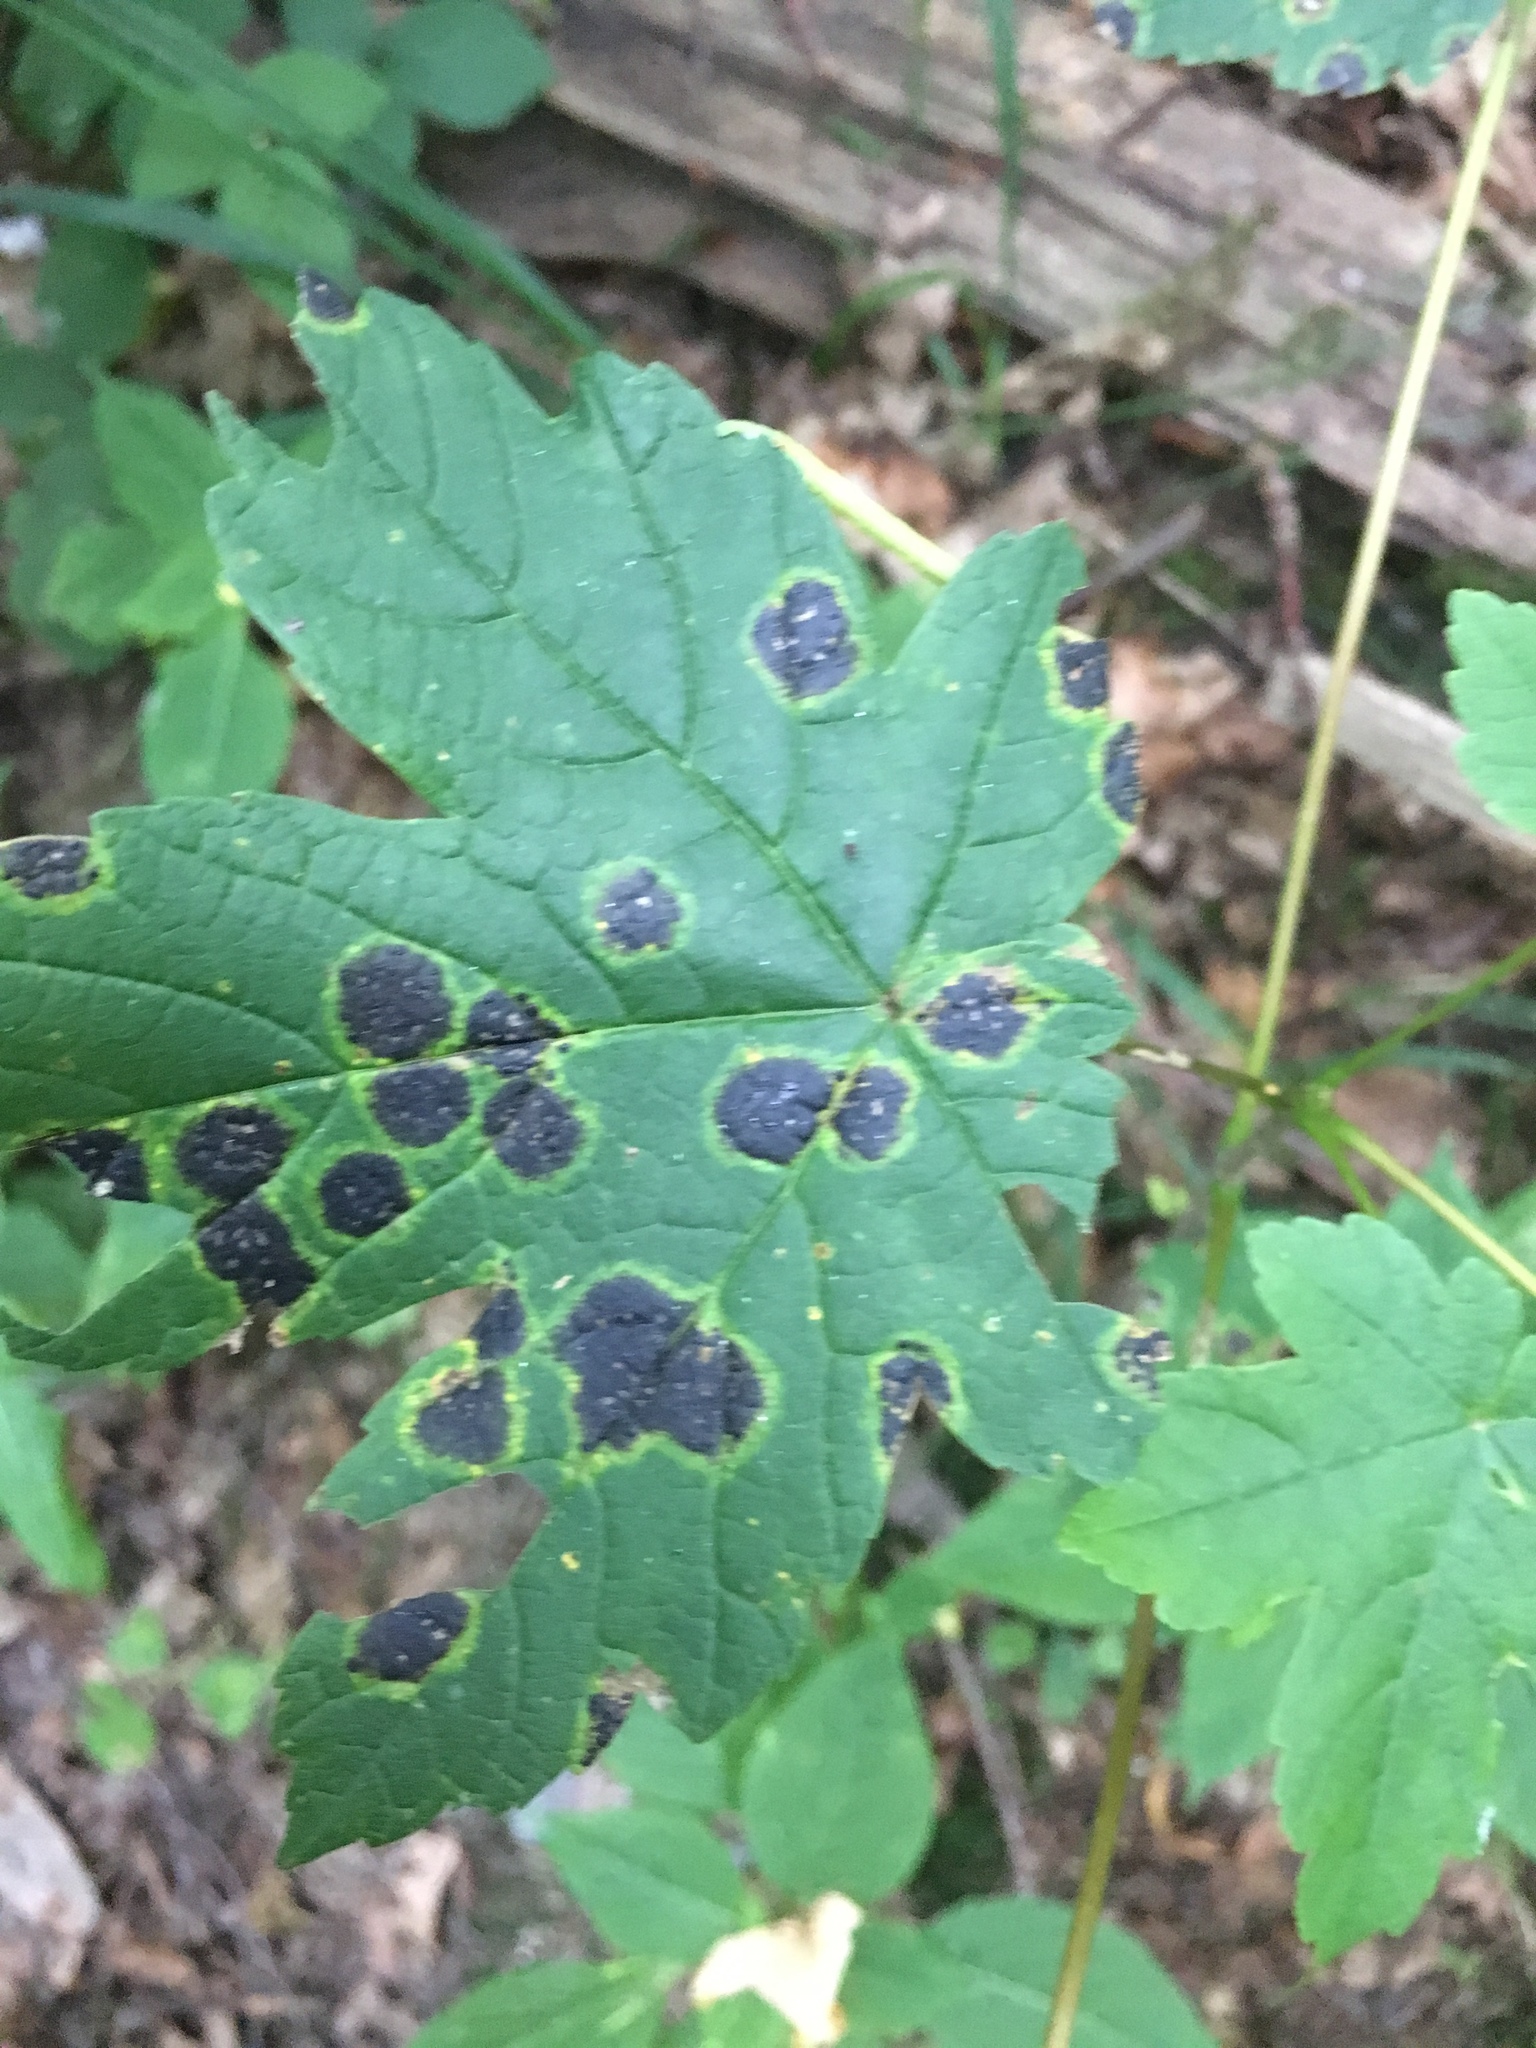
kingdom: Fungi
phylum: Ascomycota
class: Leotiomycetes
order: Rhytismatales
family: Rhytismataceae
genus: Rhytisma
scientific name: Rhytisma acerinum
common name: European tar spot
